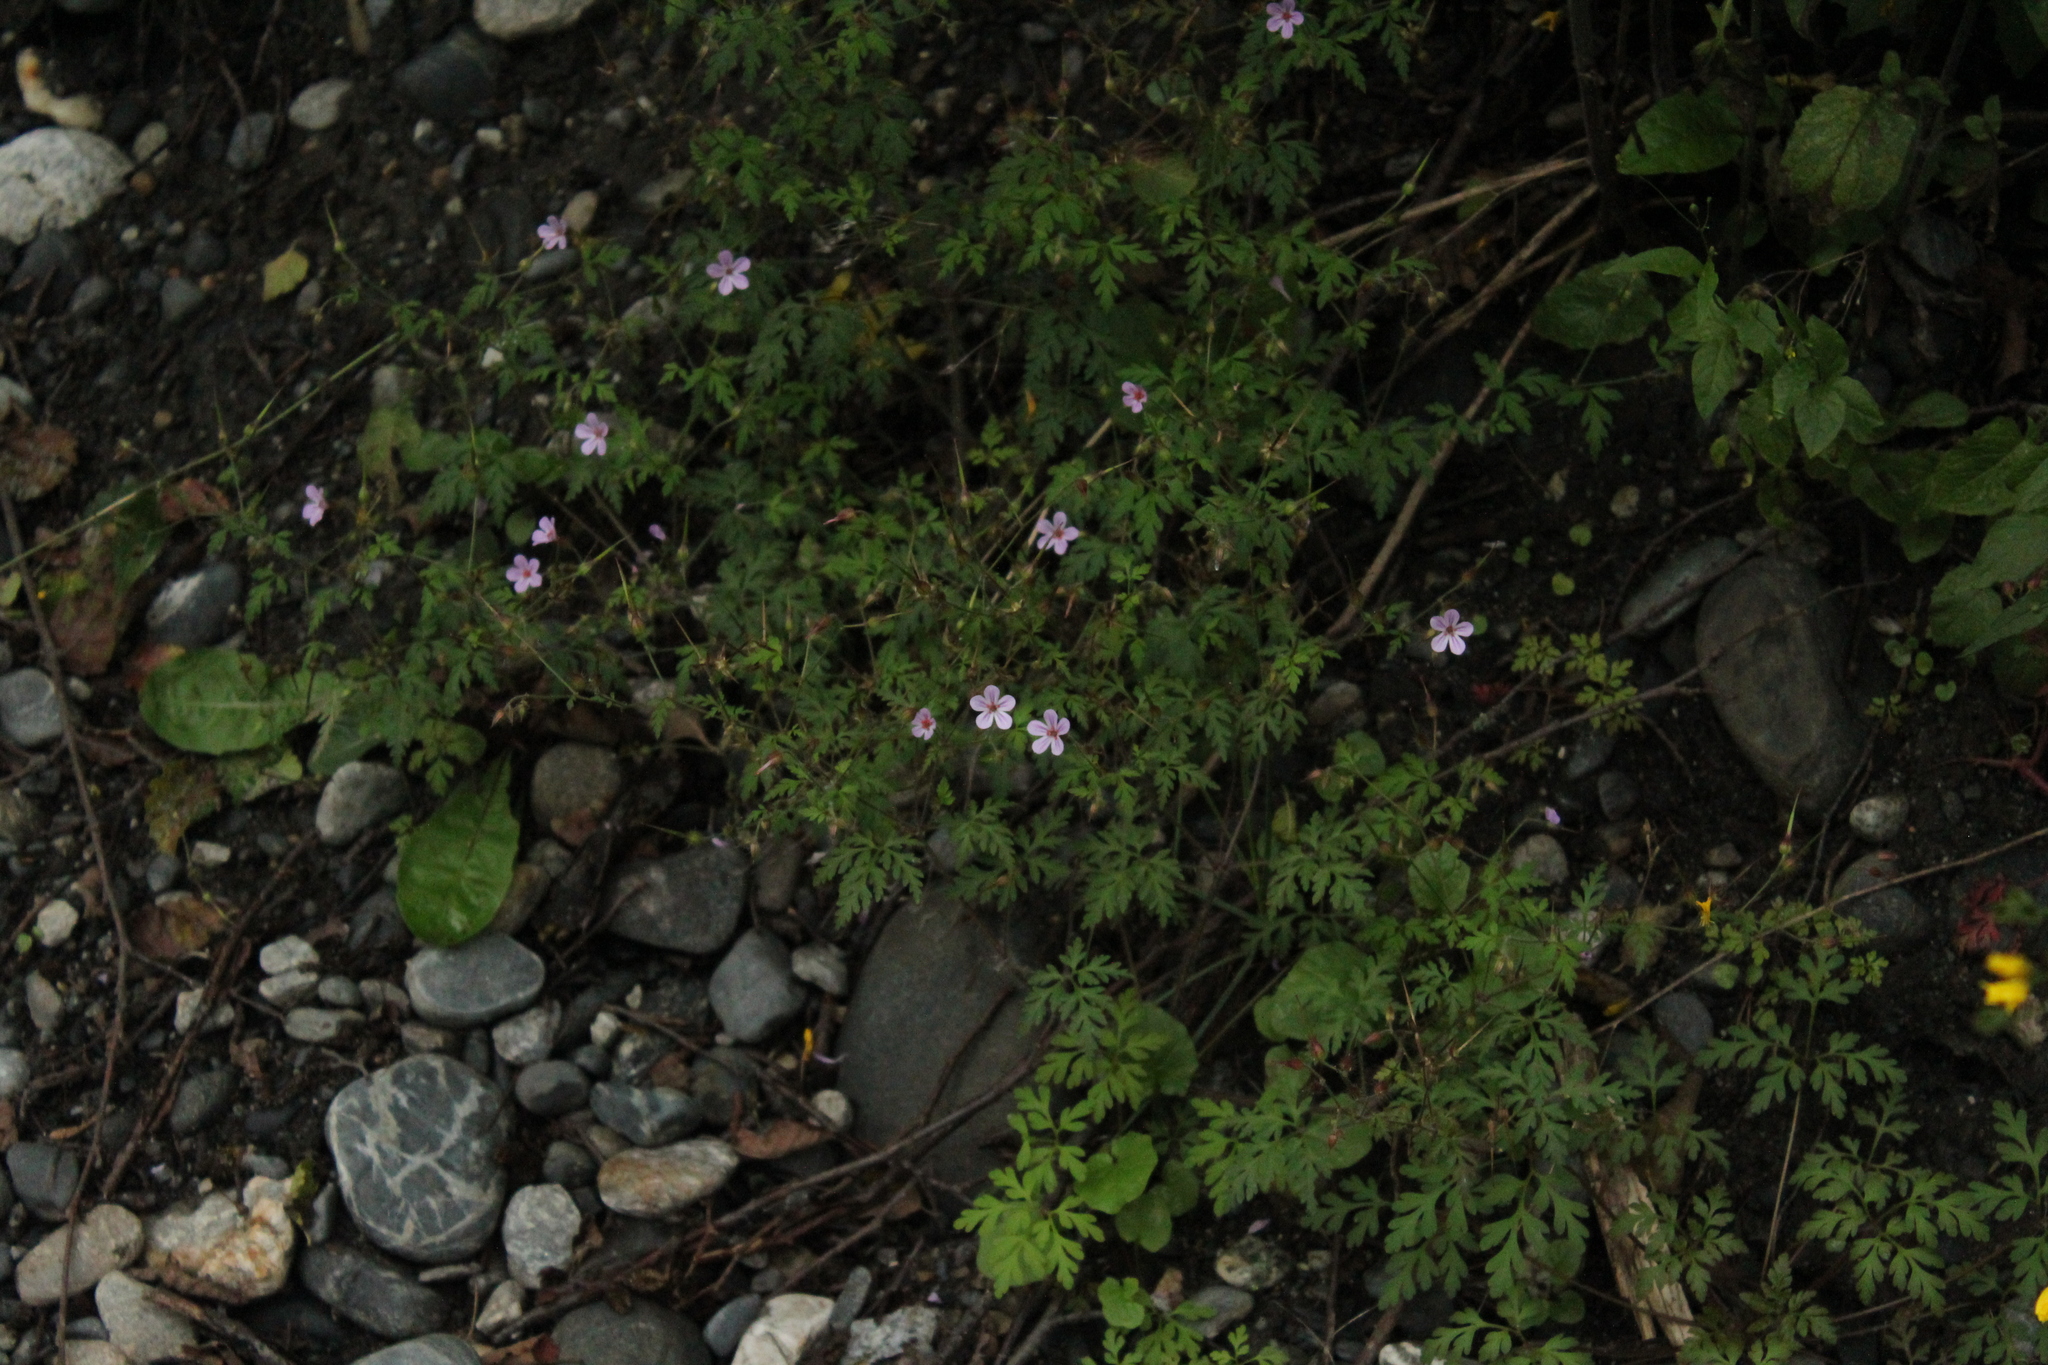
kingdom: Plantae
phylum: Tracheophyta
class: Magnoliopsida
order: Geraniales
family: Geraniaceae
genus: Geranium
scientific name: Geranium robertianum
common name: Herb-robert
